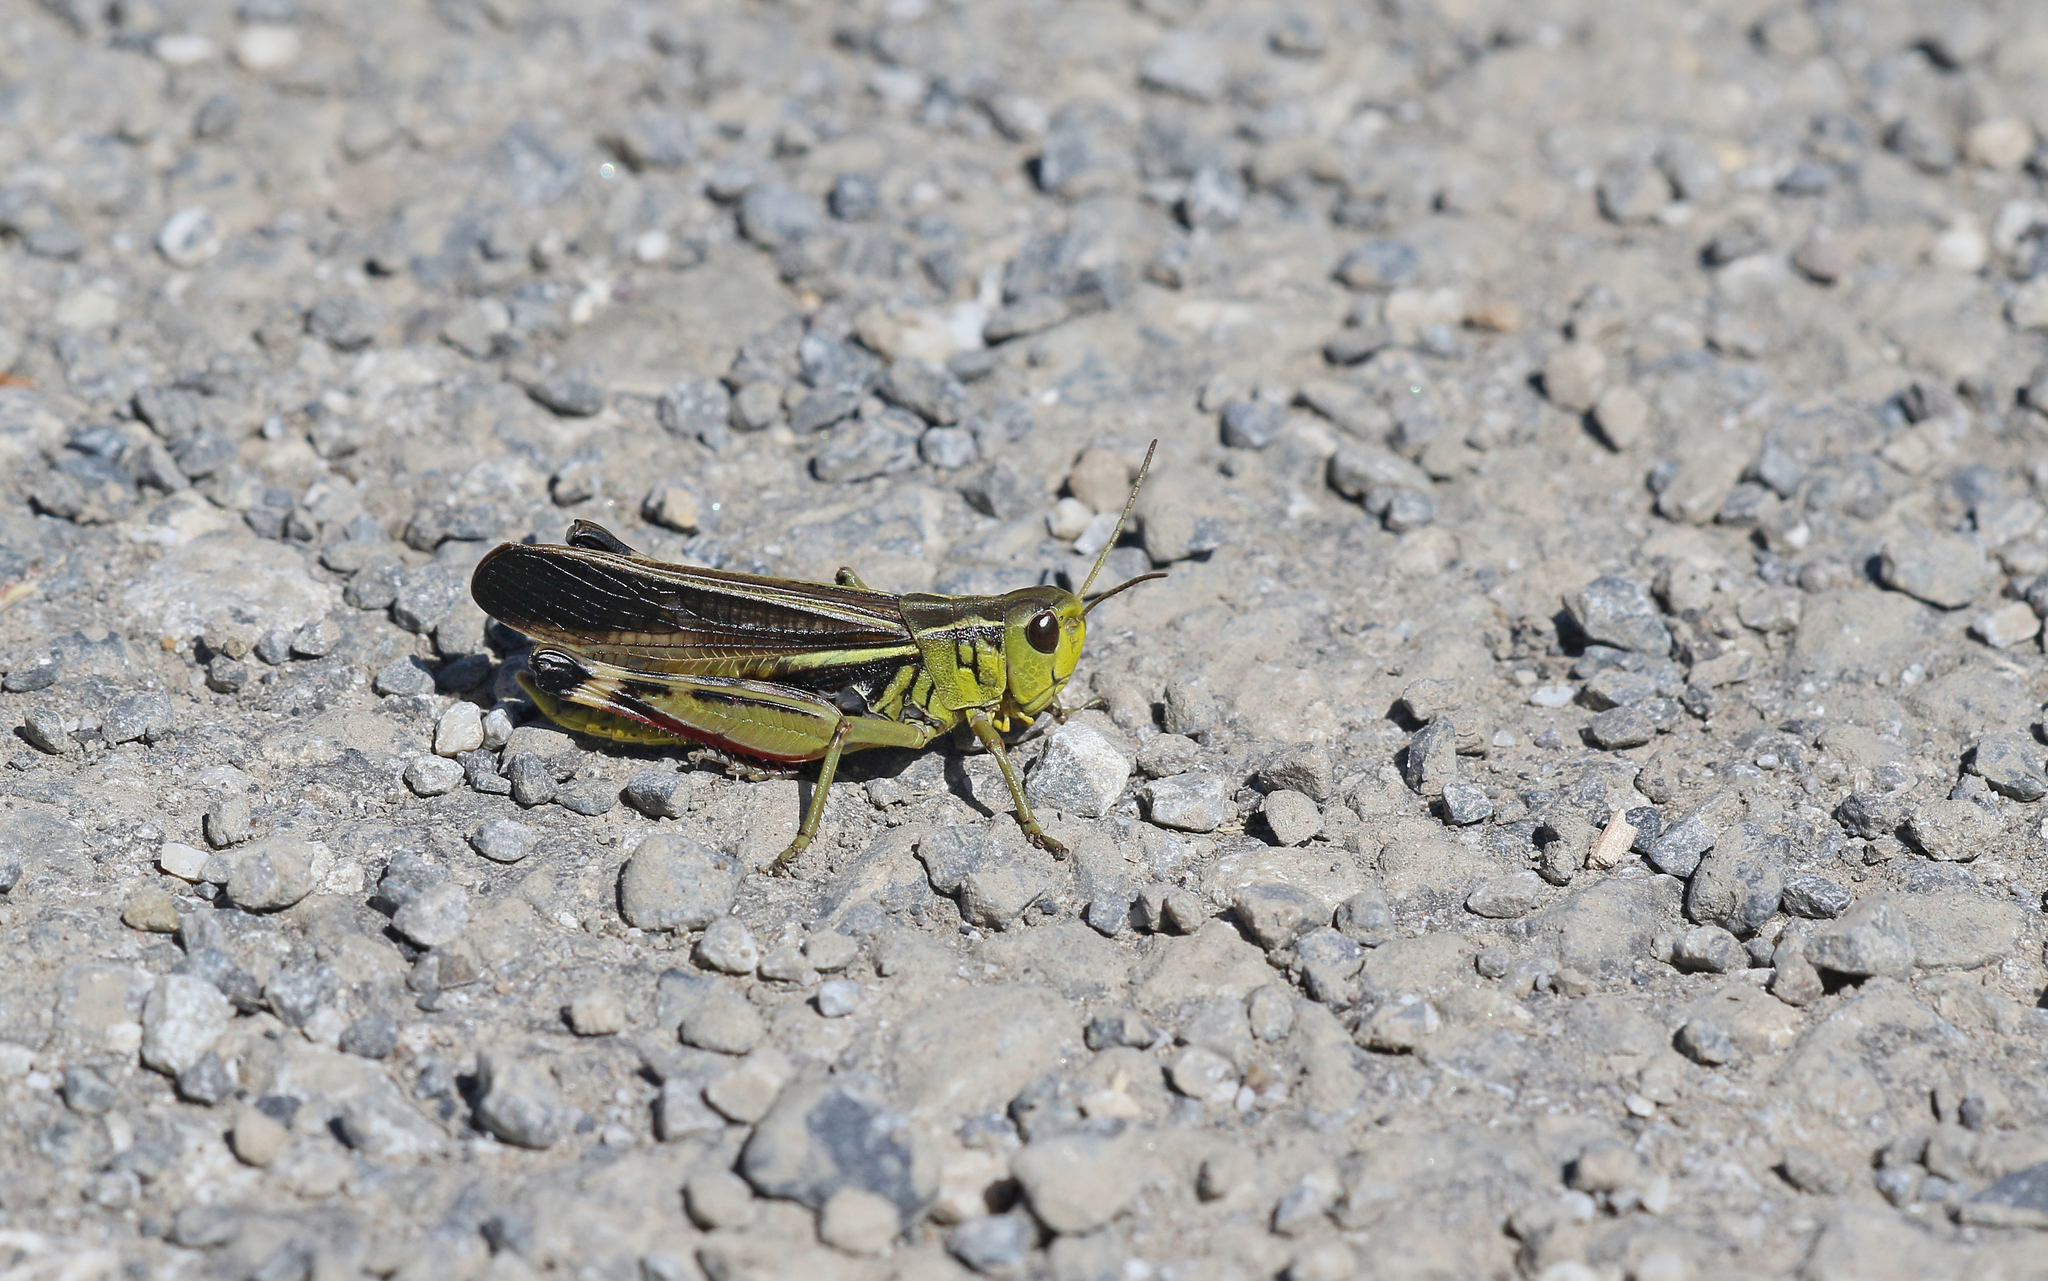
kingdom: Animalia
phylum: Arthropoda
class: Insecta
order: Orthoptera
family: Acrididae
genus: Arcyptera
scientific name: Arcyptera fusca
